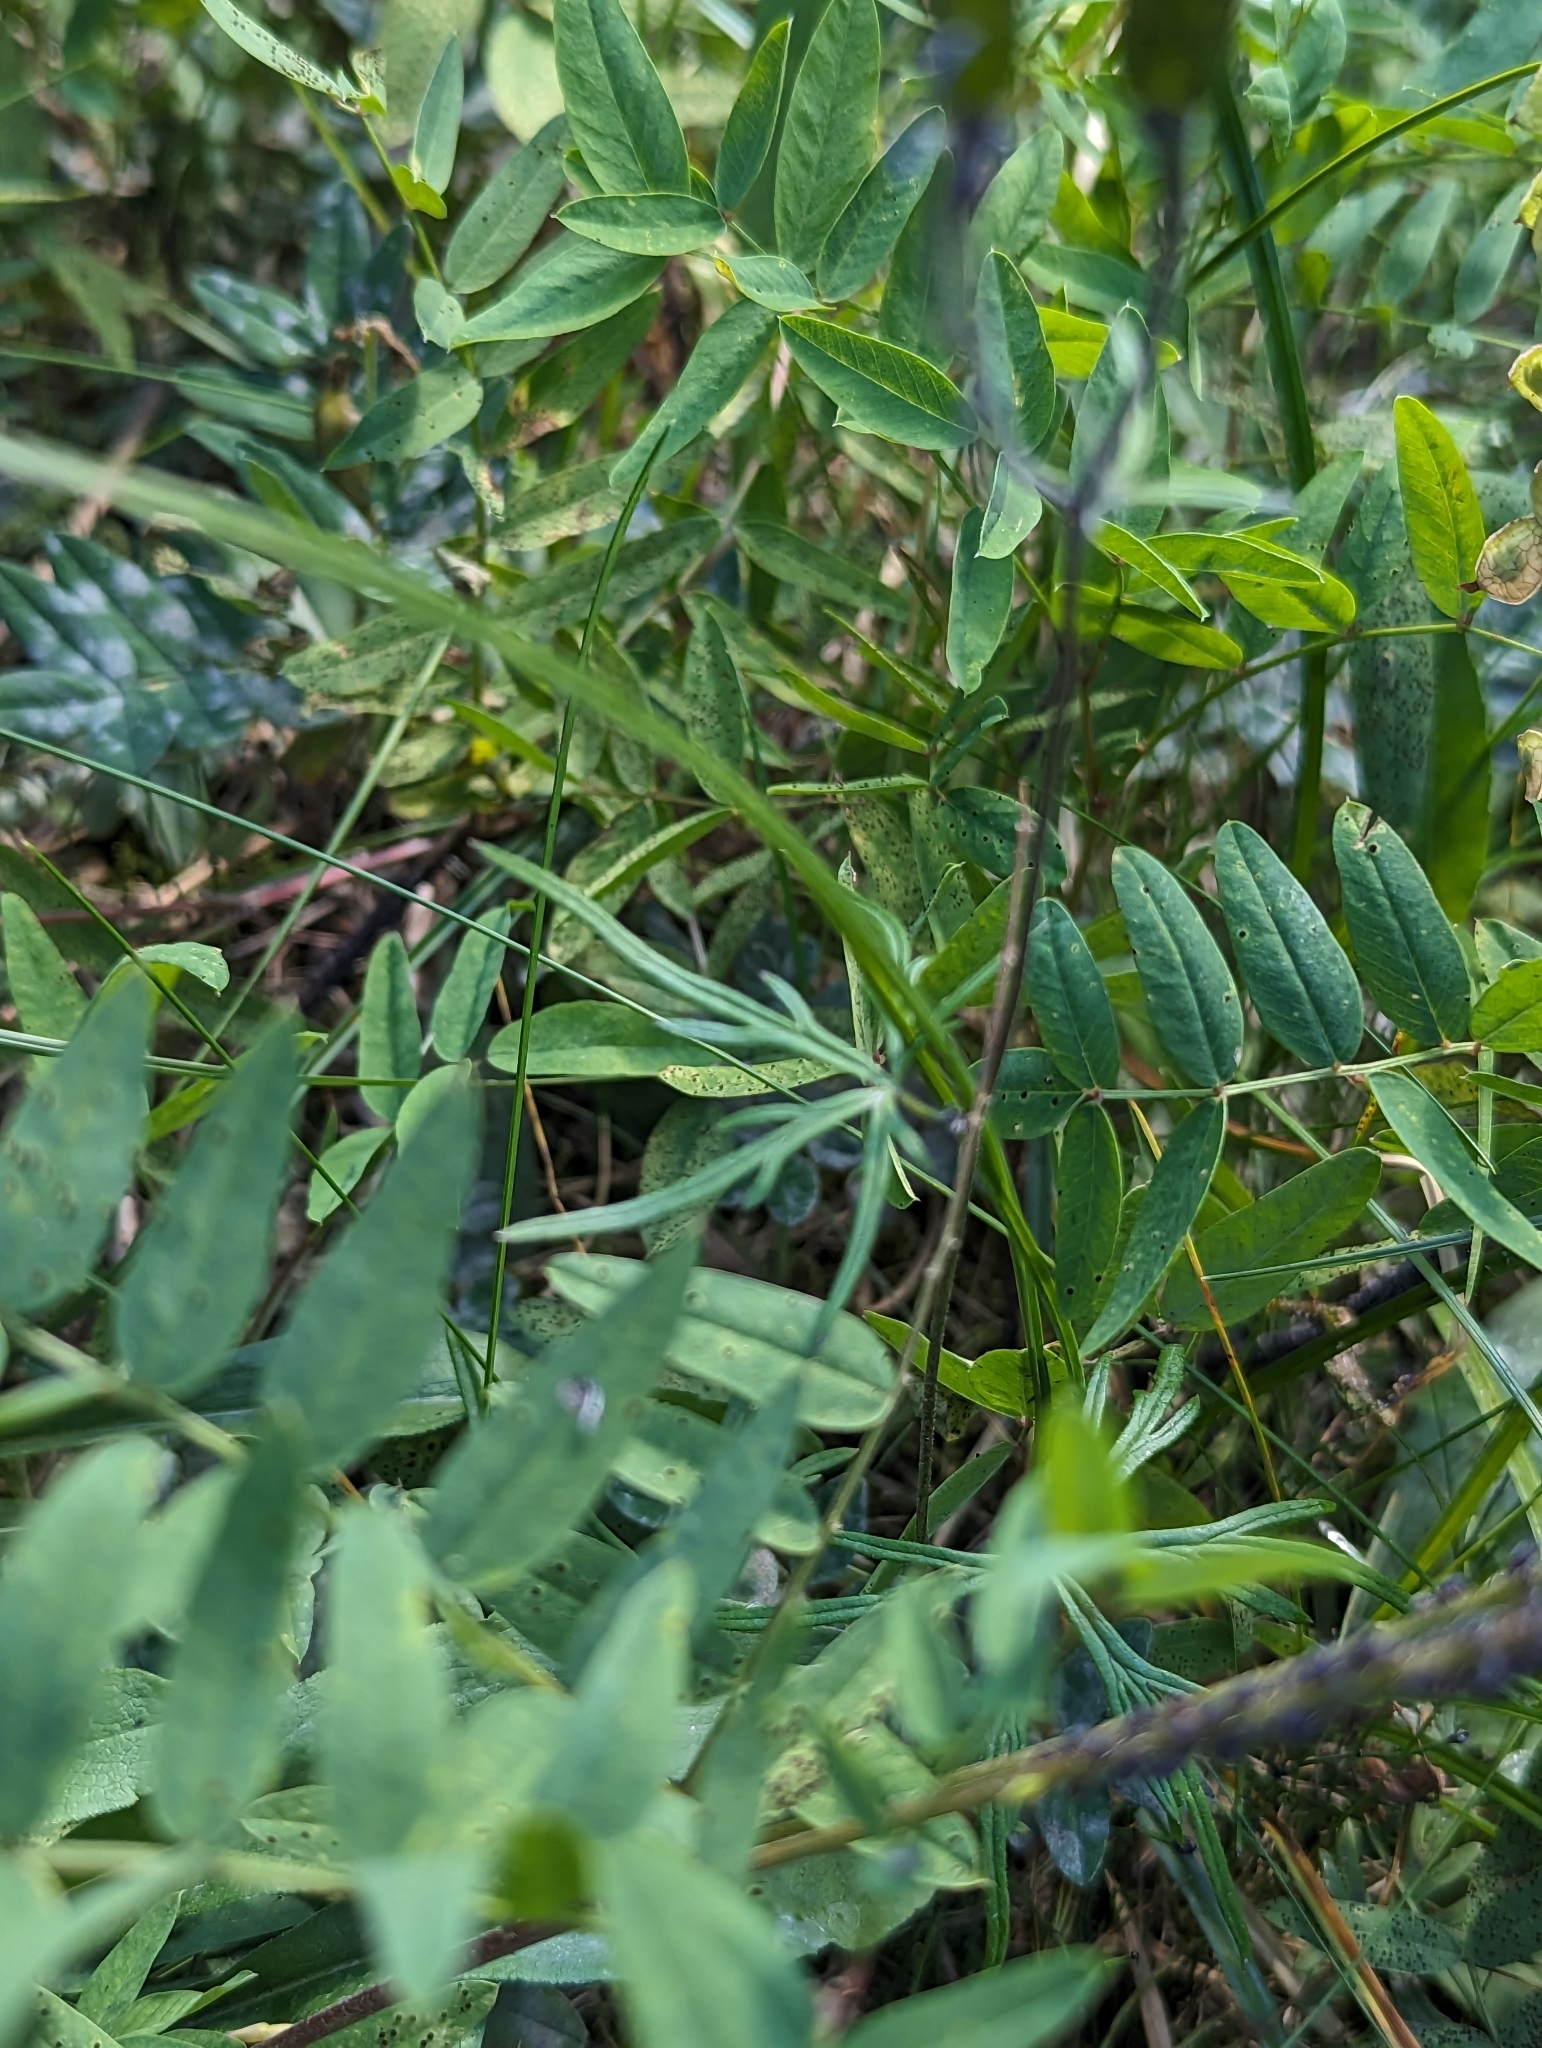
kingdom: Plantae
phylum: Tracheophyta
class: Magnoliopsida
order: Ranunculales
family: Ranunculaceae
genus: Aconitum
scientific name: Aconitum delphiniifolium
